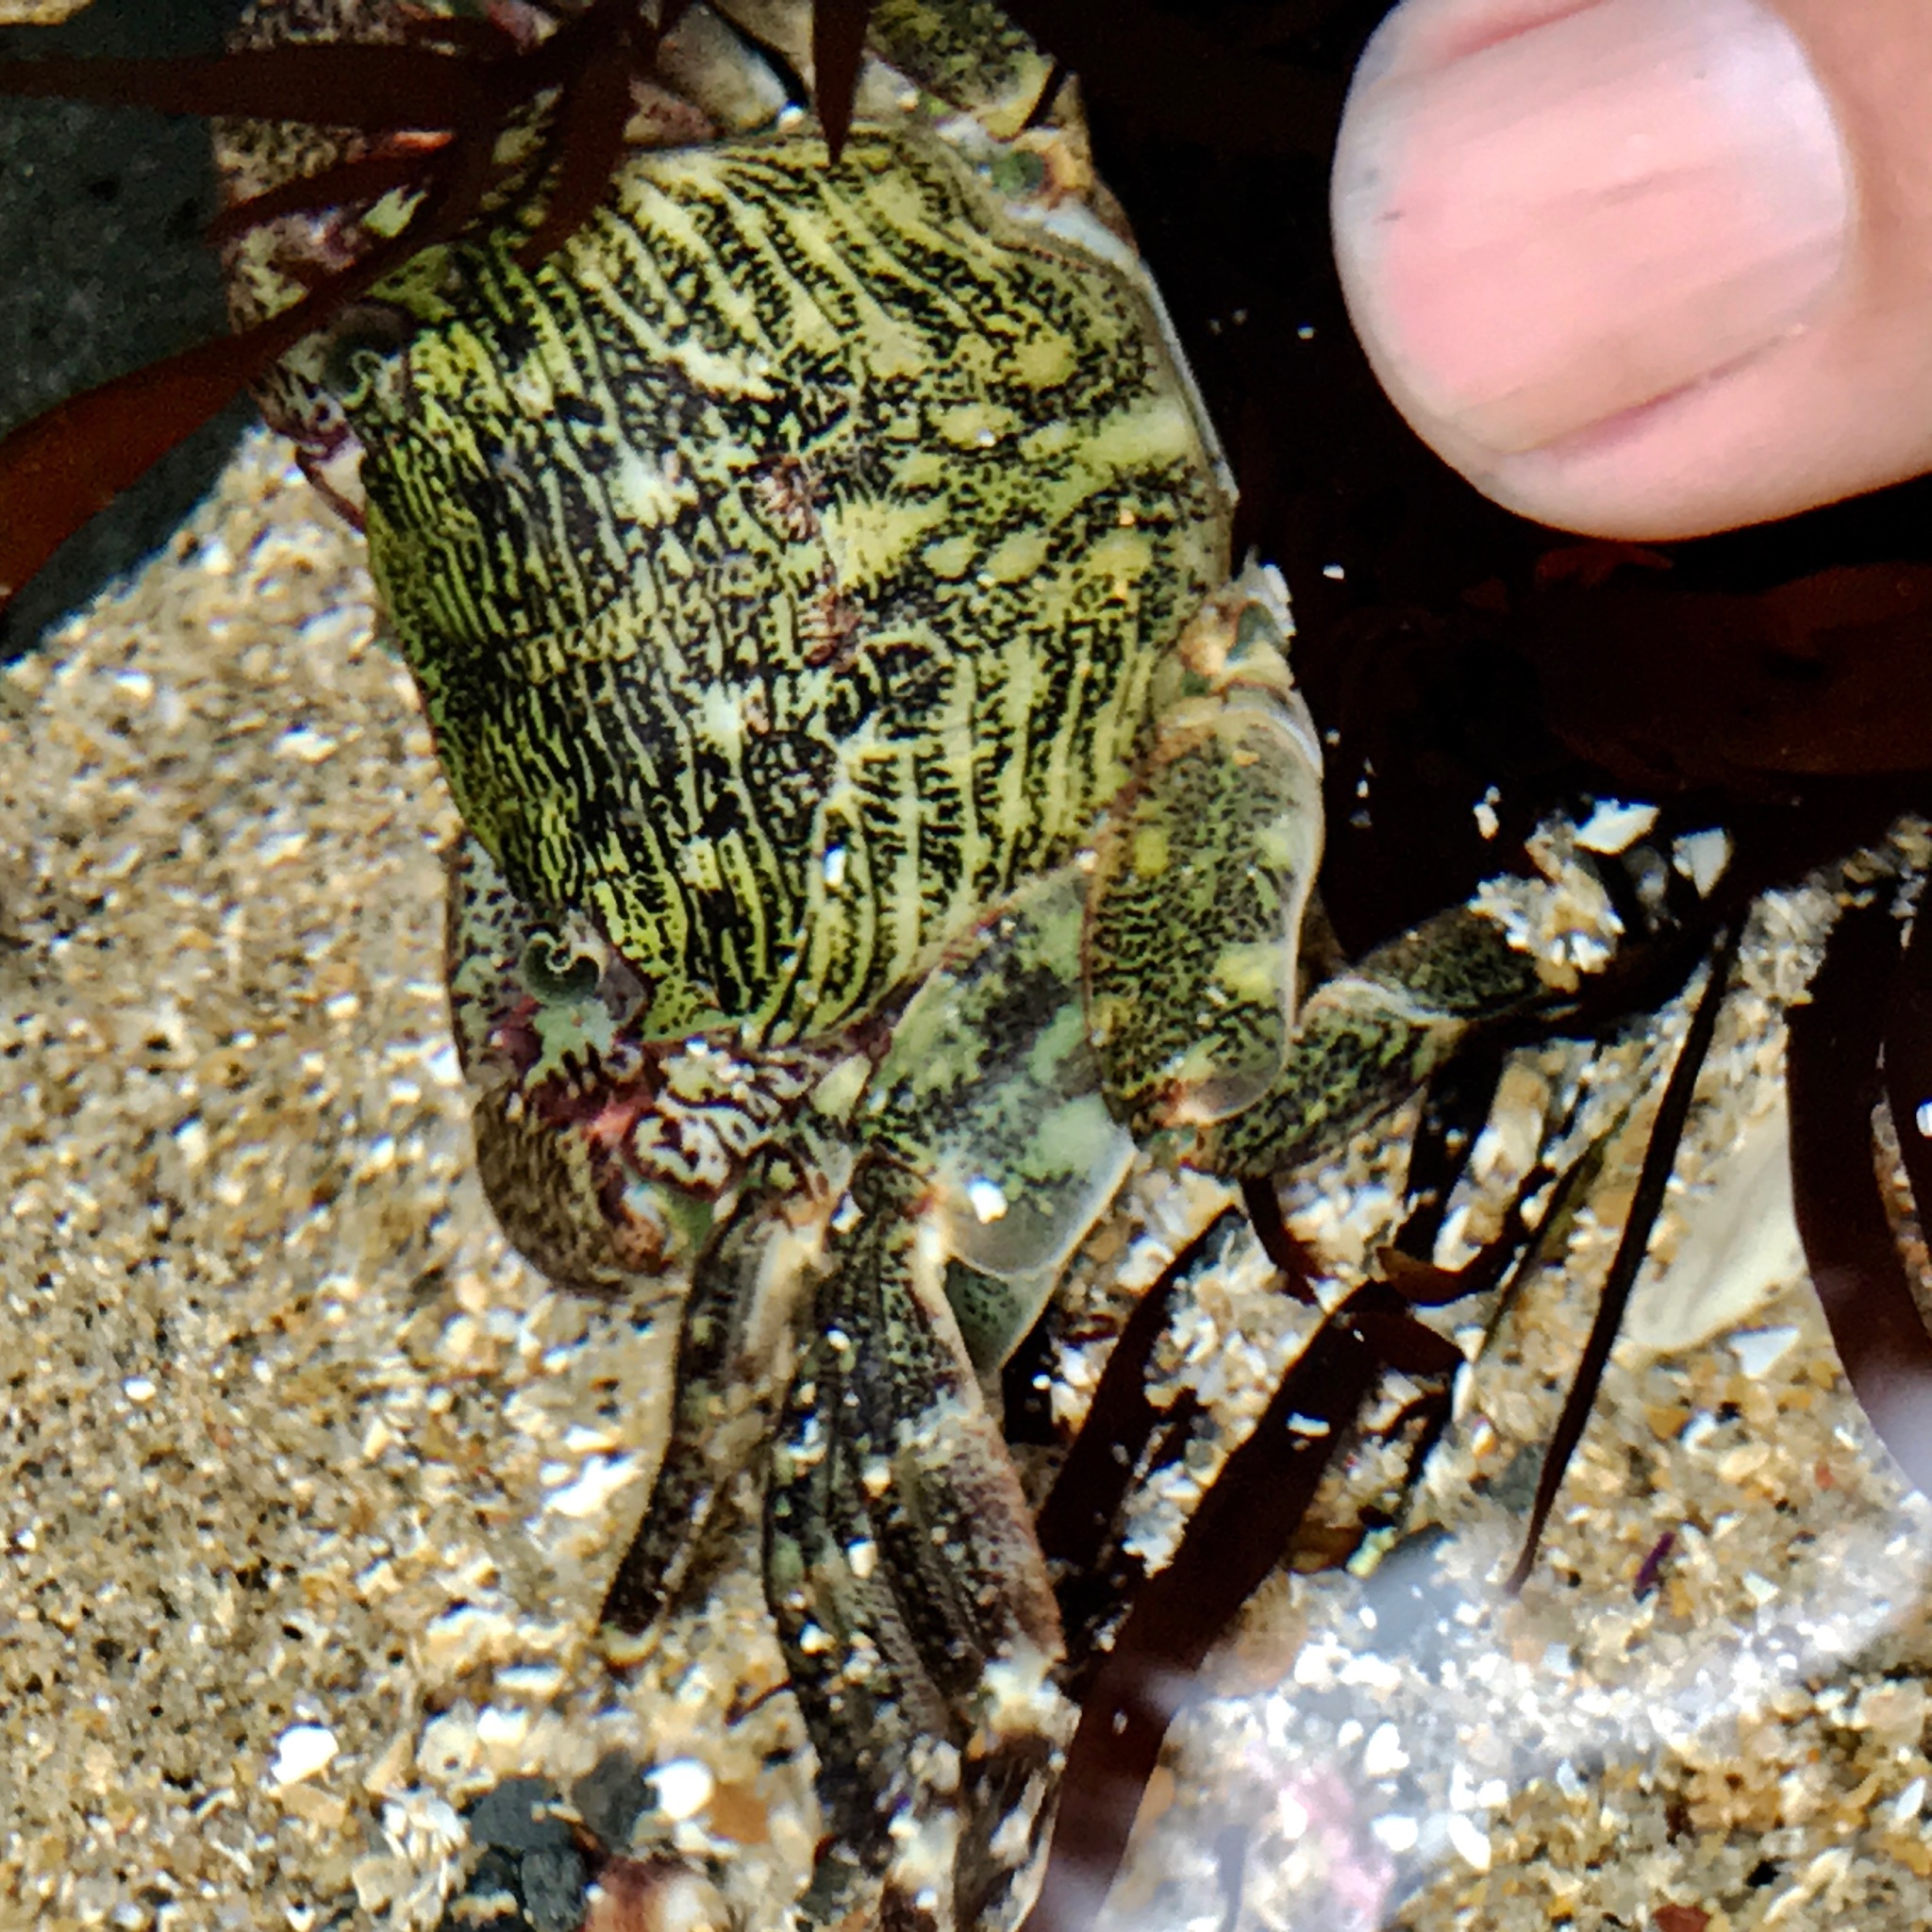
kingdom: Animalia
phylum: Arthropoda
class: Malacostraca
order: Decapoda
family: Grapsidae
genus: Pachygrapsus
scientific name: Pachygrapsus crassipes
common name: Striped shore crab
